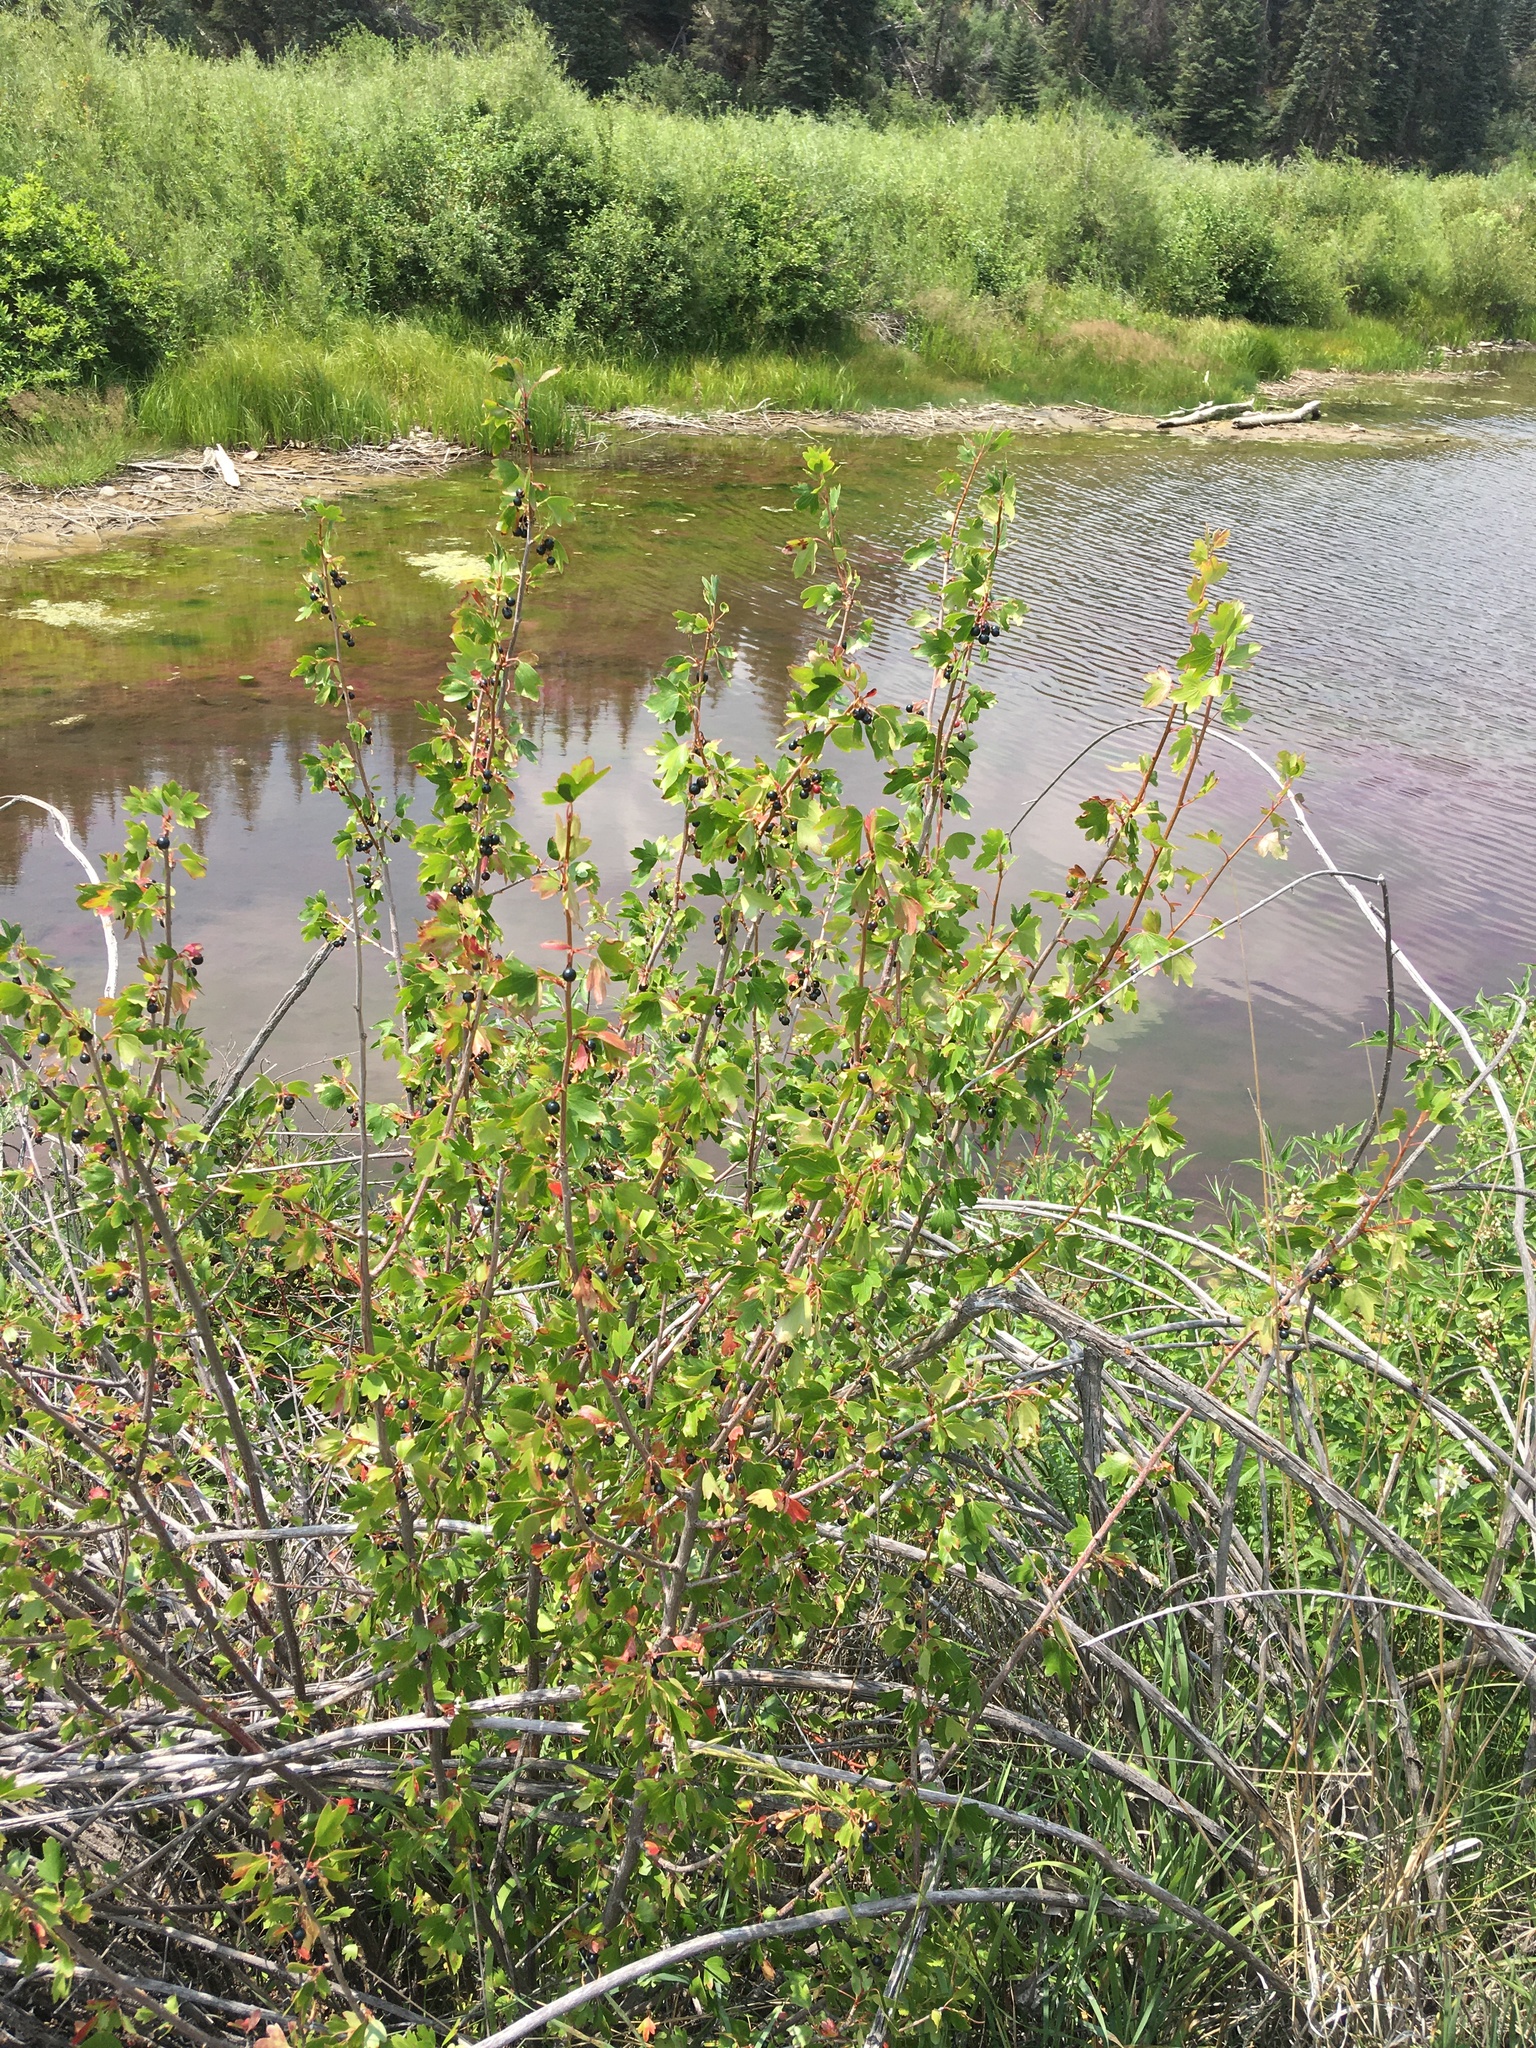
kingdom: Plantae
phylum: Tracheophyta
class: Magnoliopsida
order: Saxifragales
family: Grossulariaceae
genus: Ribes
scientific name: Ribes aureum
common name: Golden currant
